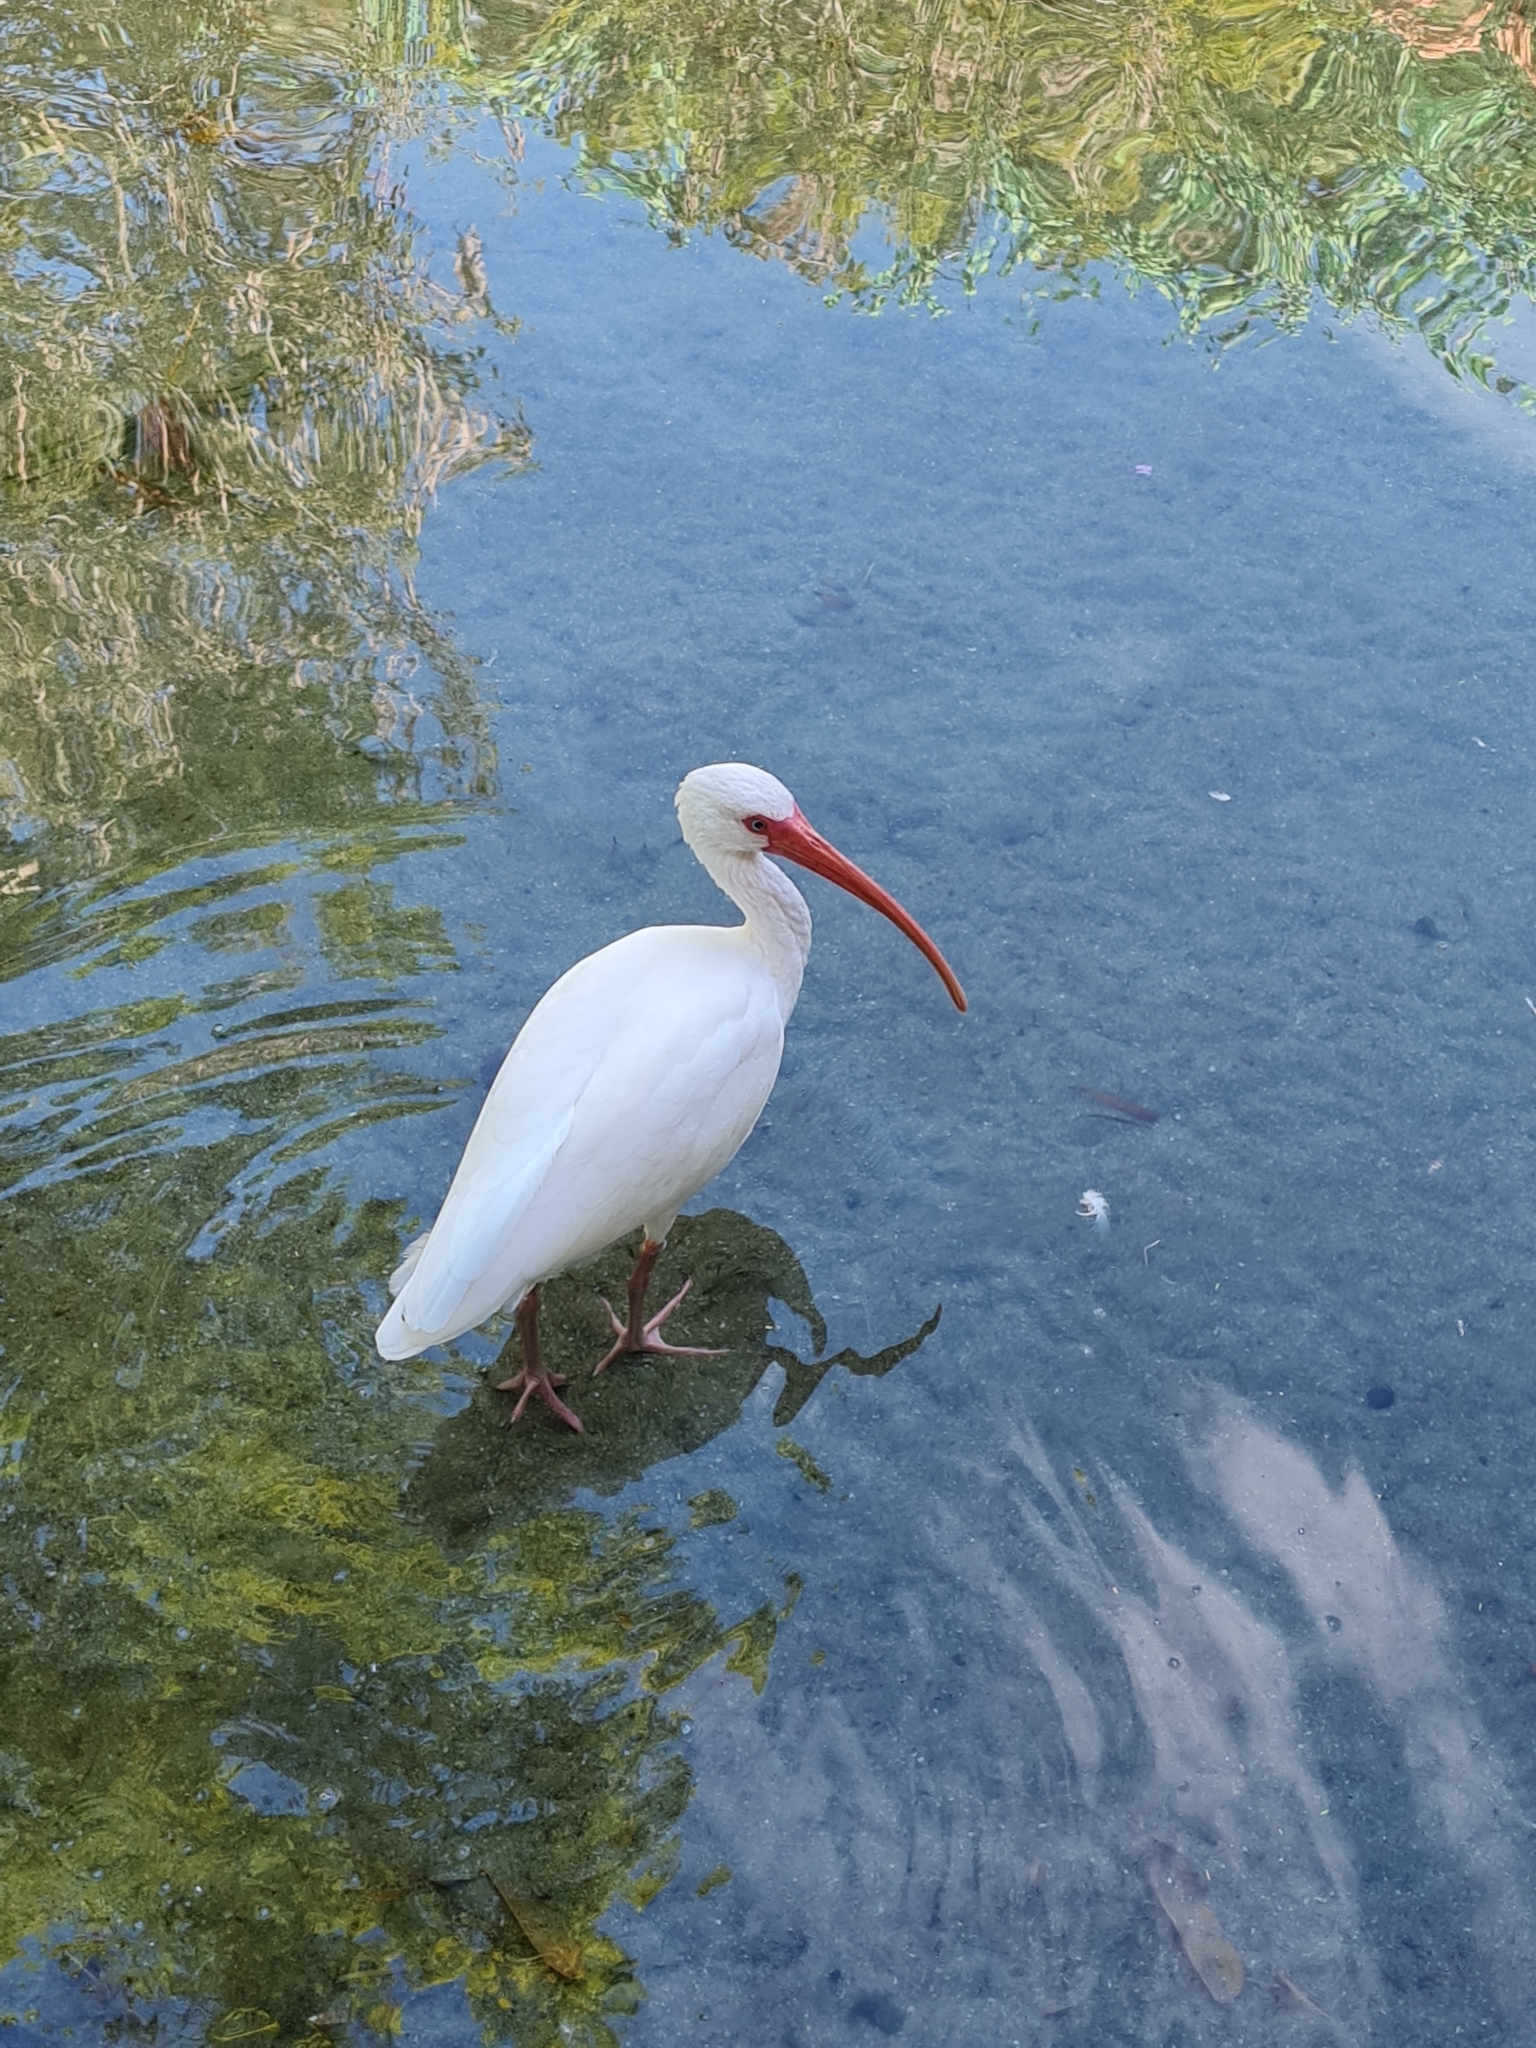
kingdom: Animalia
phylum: Chordata
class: Aves
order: Pelecaniformes
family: Threskiornithidae
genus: Eudocimus
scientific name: Eudocimus albus
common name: White ibis
